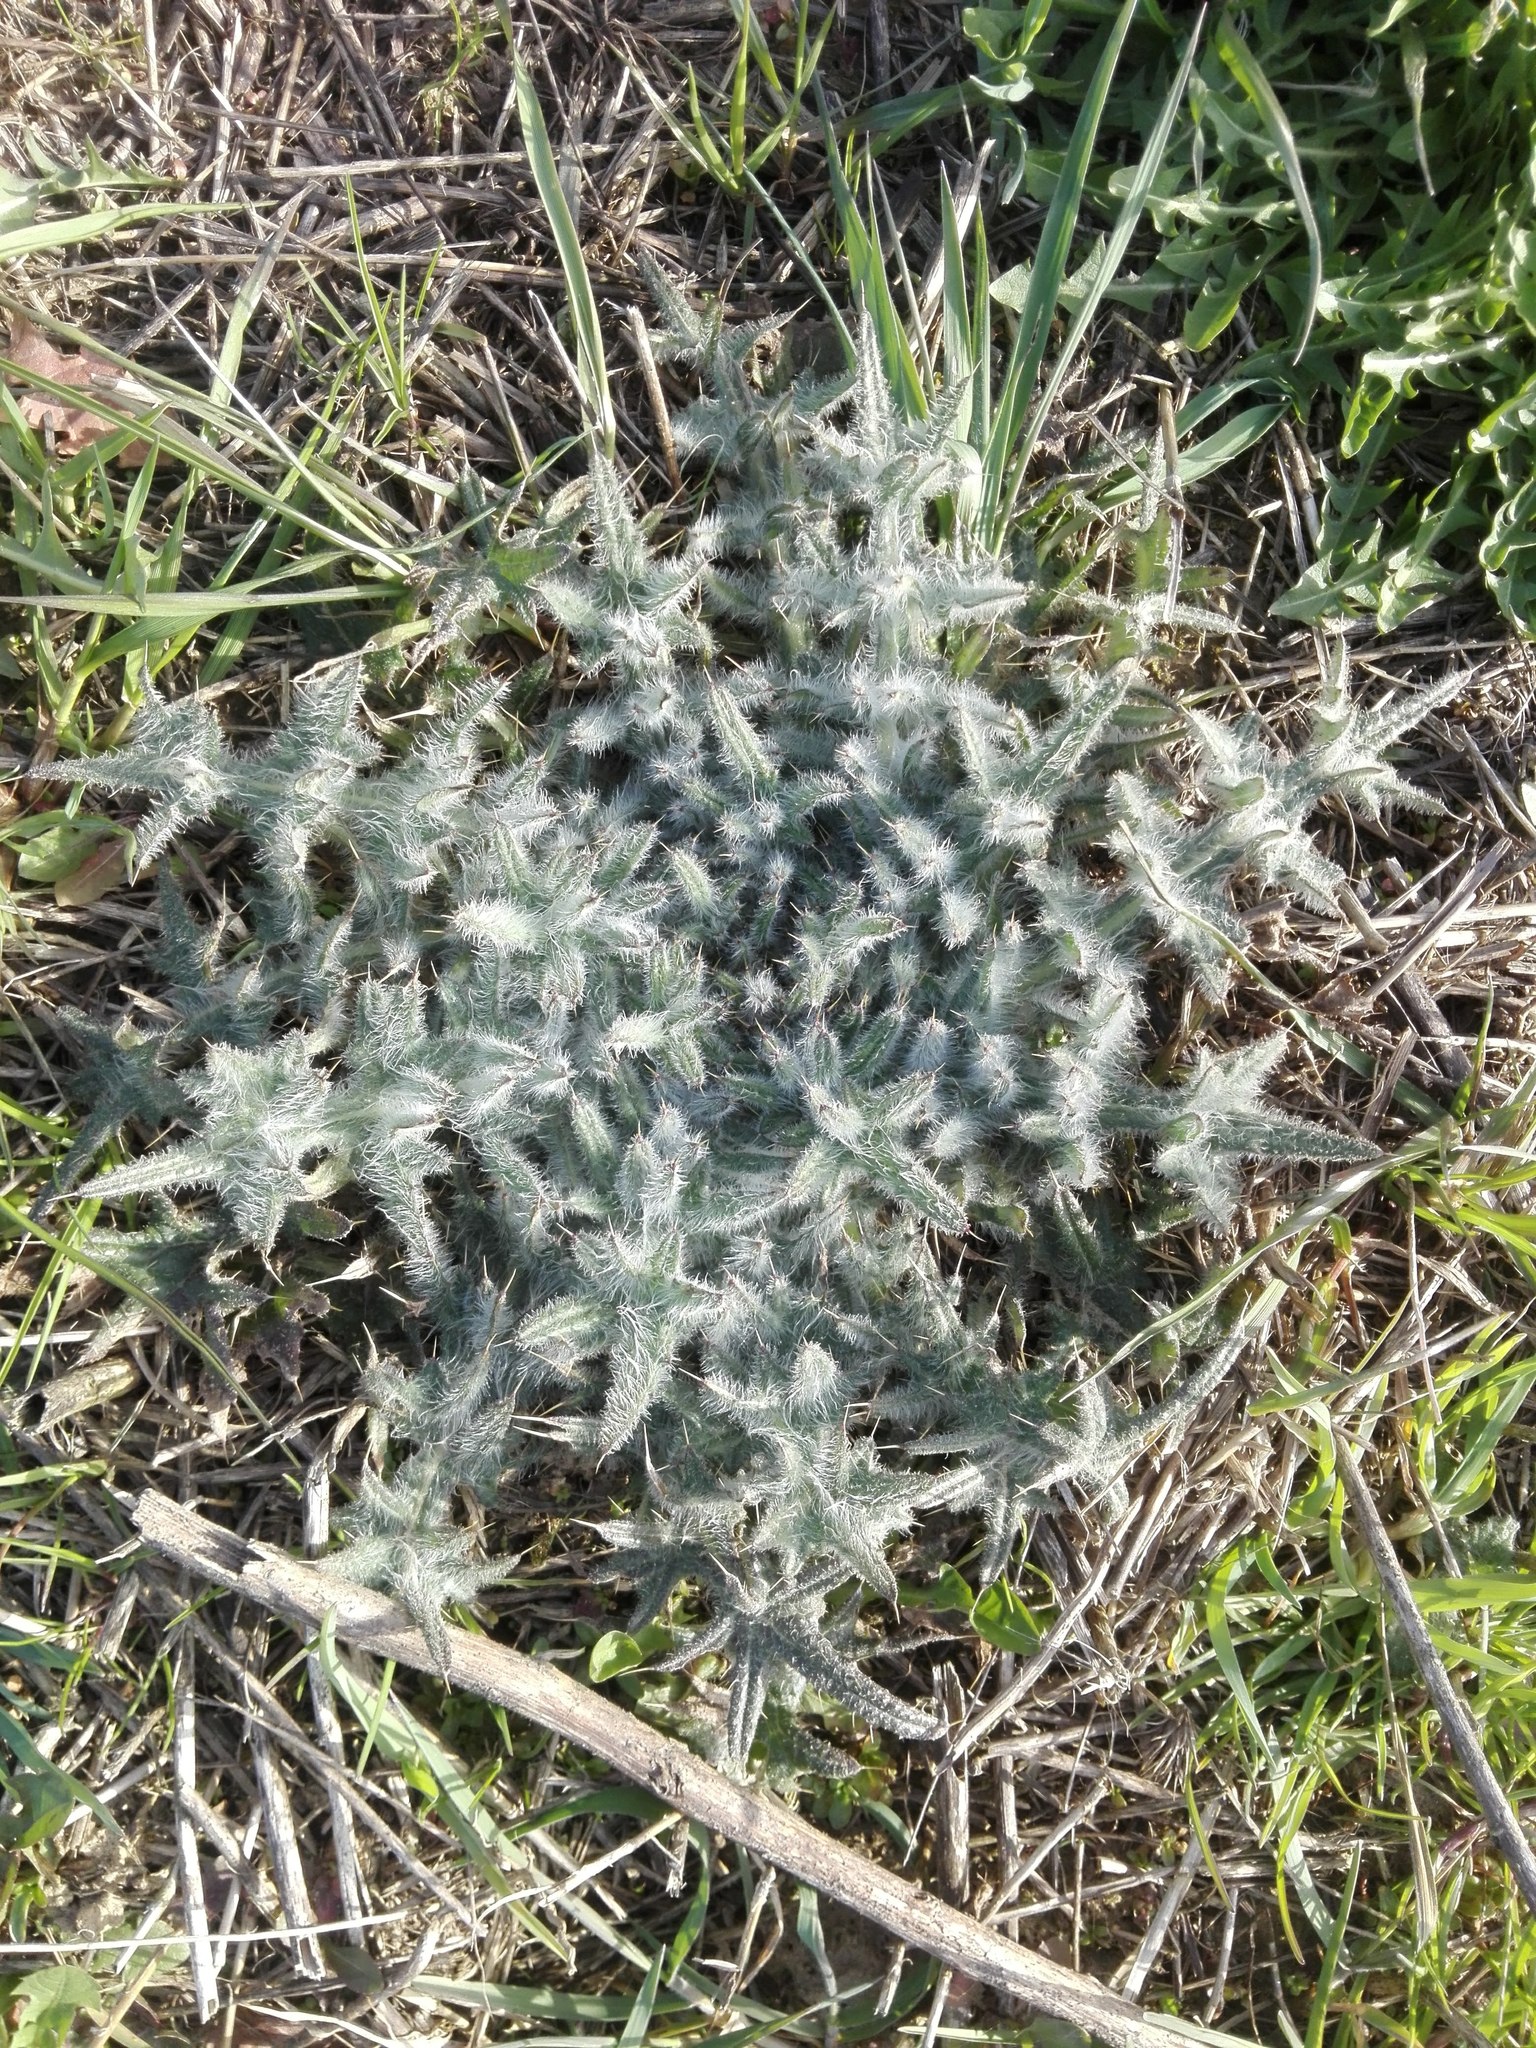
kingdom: Plantae
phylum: Tracheophyta
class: Magnoliopsida
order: Asterales
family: Asteraceae
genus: Cirsium
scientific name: Cirsium vulgare
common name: Bull thistle
